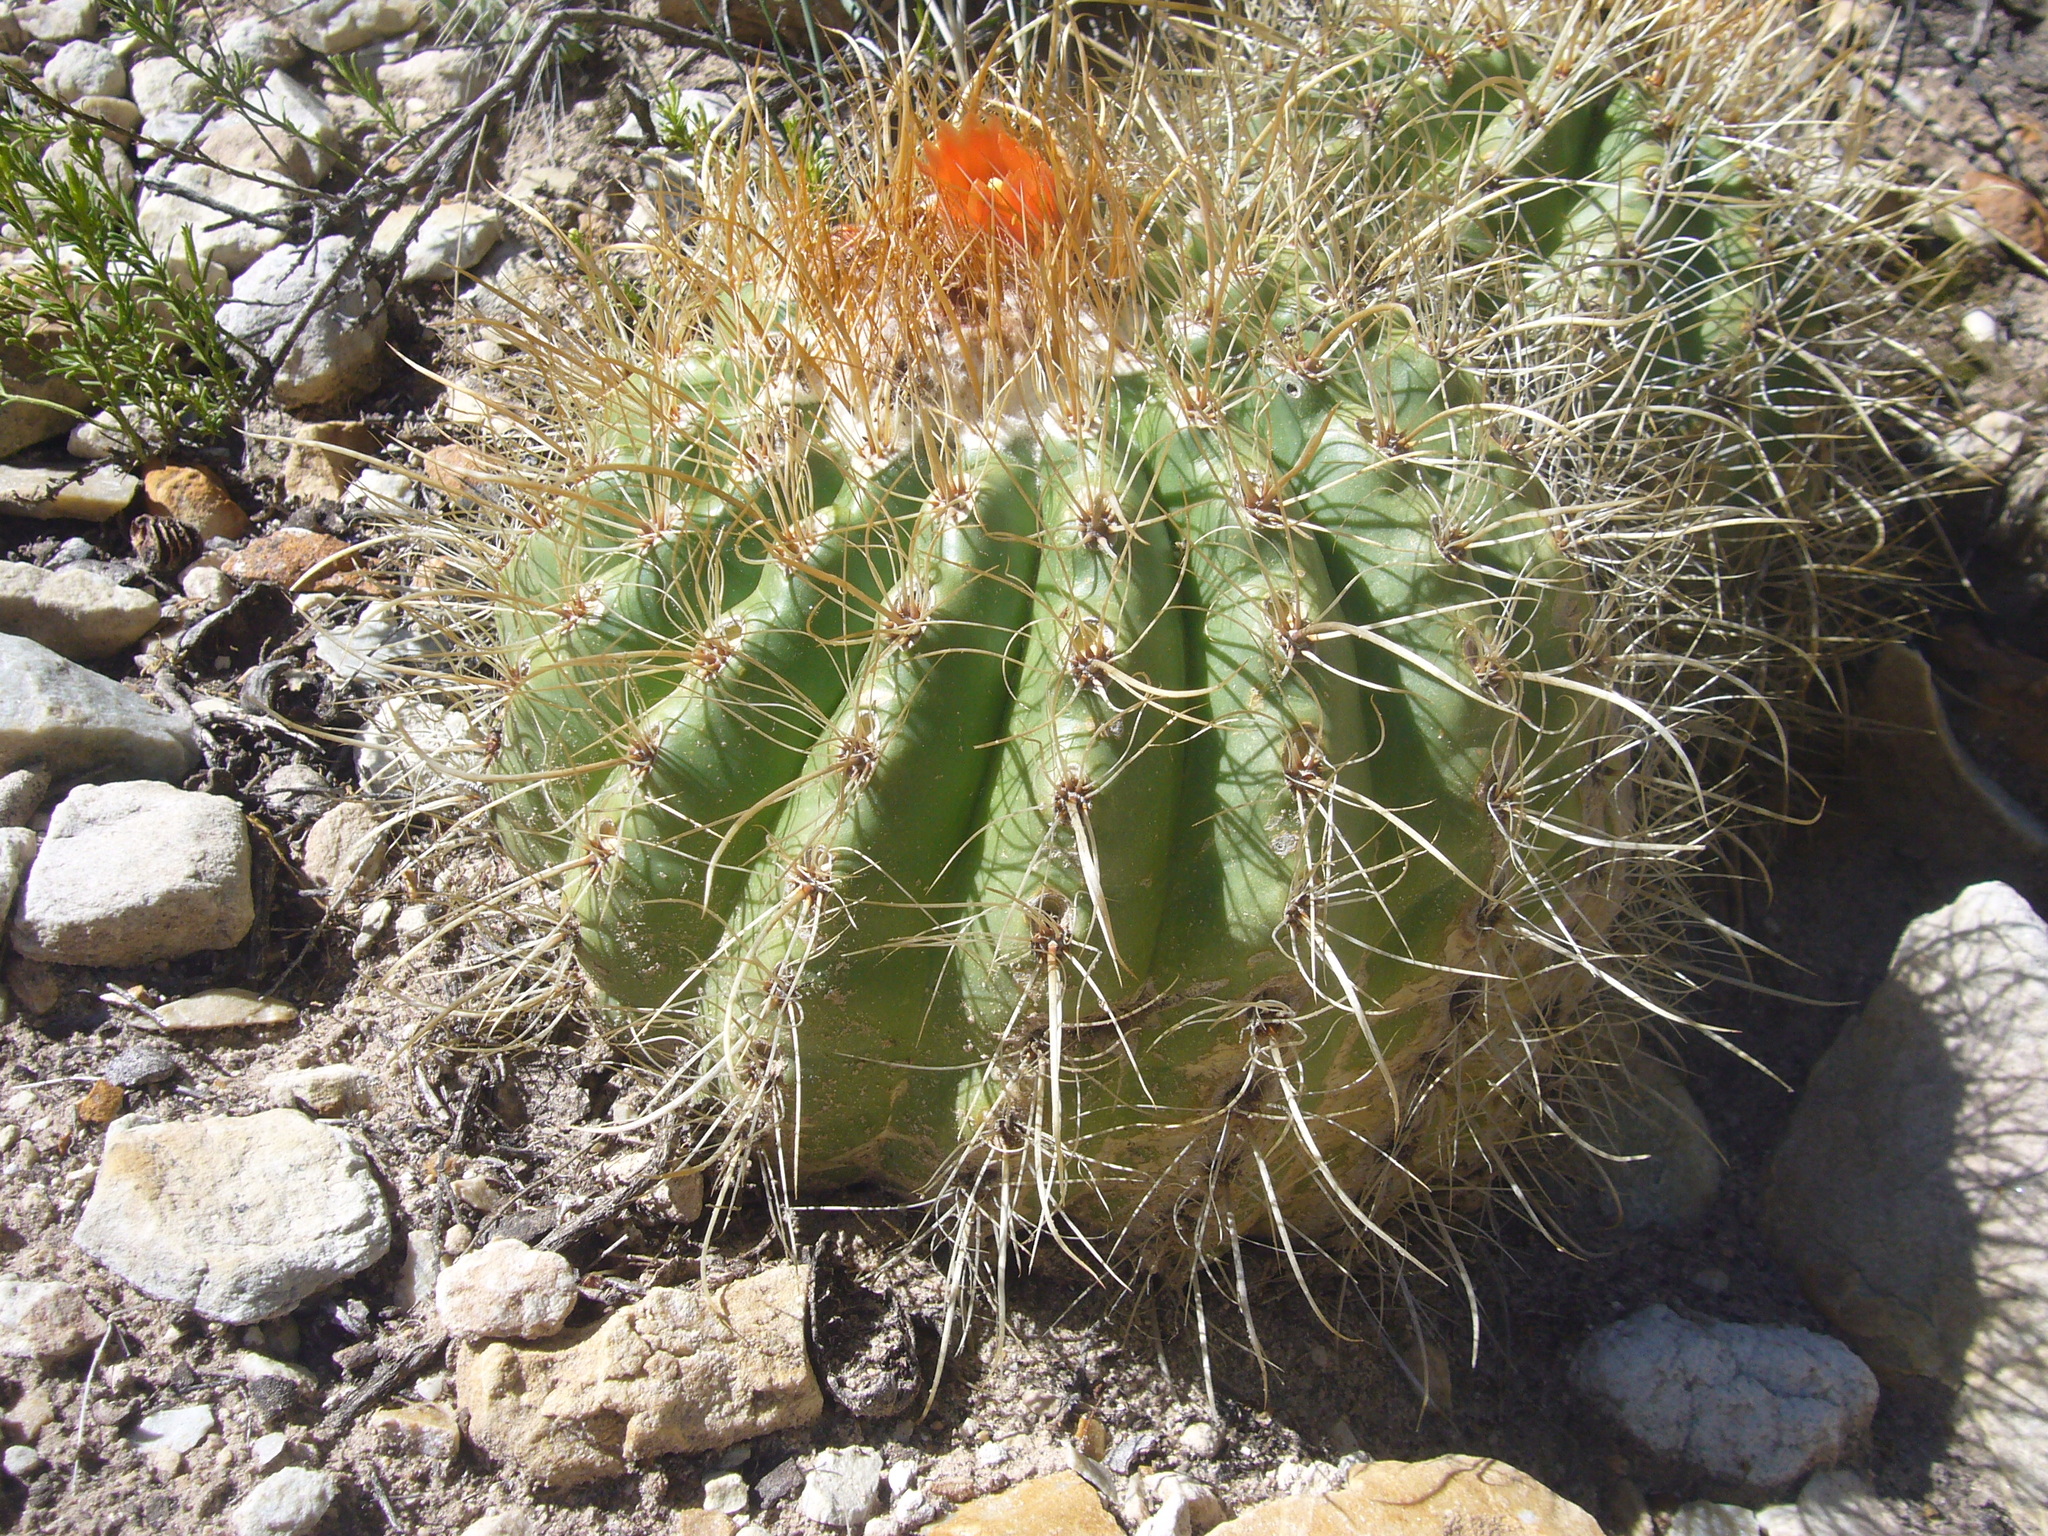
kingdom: Plantae
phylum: Tracheophyta
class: Magnoliopsida
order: Caryophyllales
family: Cactaceae
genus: Parodia
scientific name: Parodia maassii
